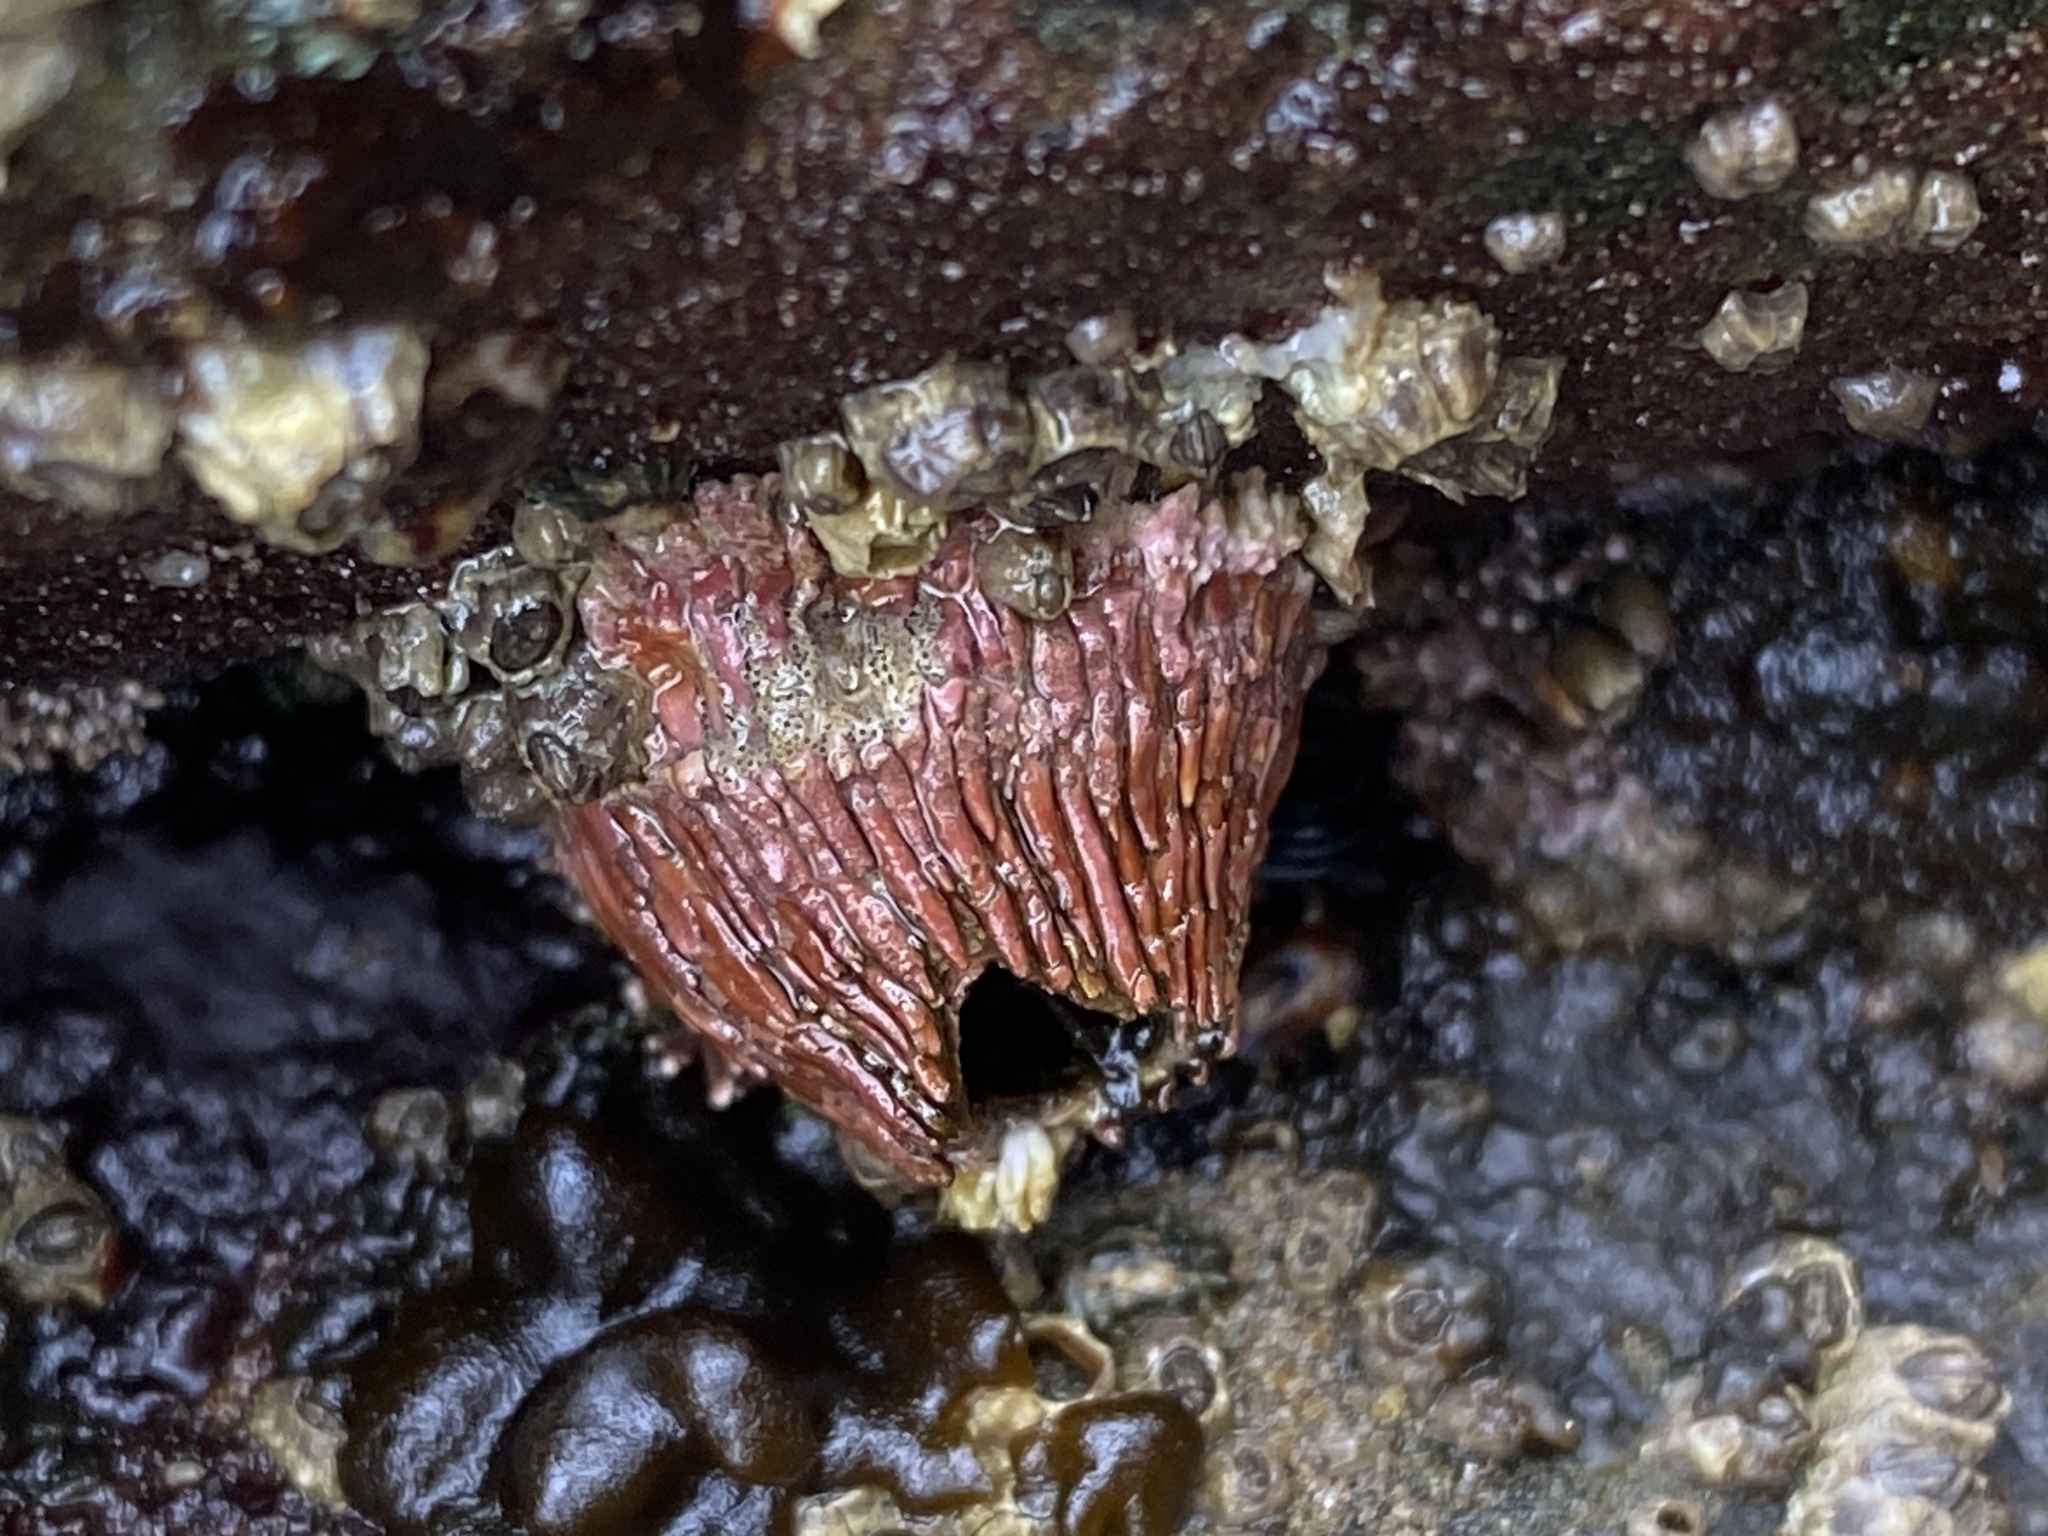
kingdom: Animalia
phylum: Arthropoda
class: Maxillopoda
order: Sessilia
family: Tetraclitidae
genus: Tetraclita
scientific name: Tetraclita rubescens
